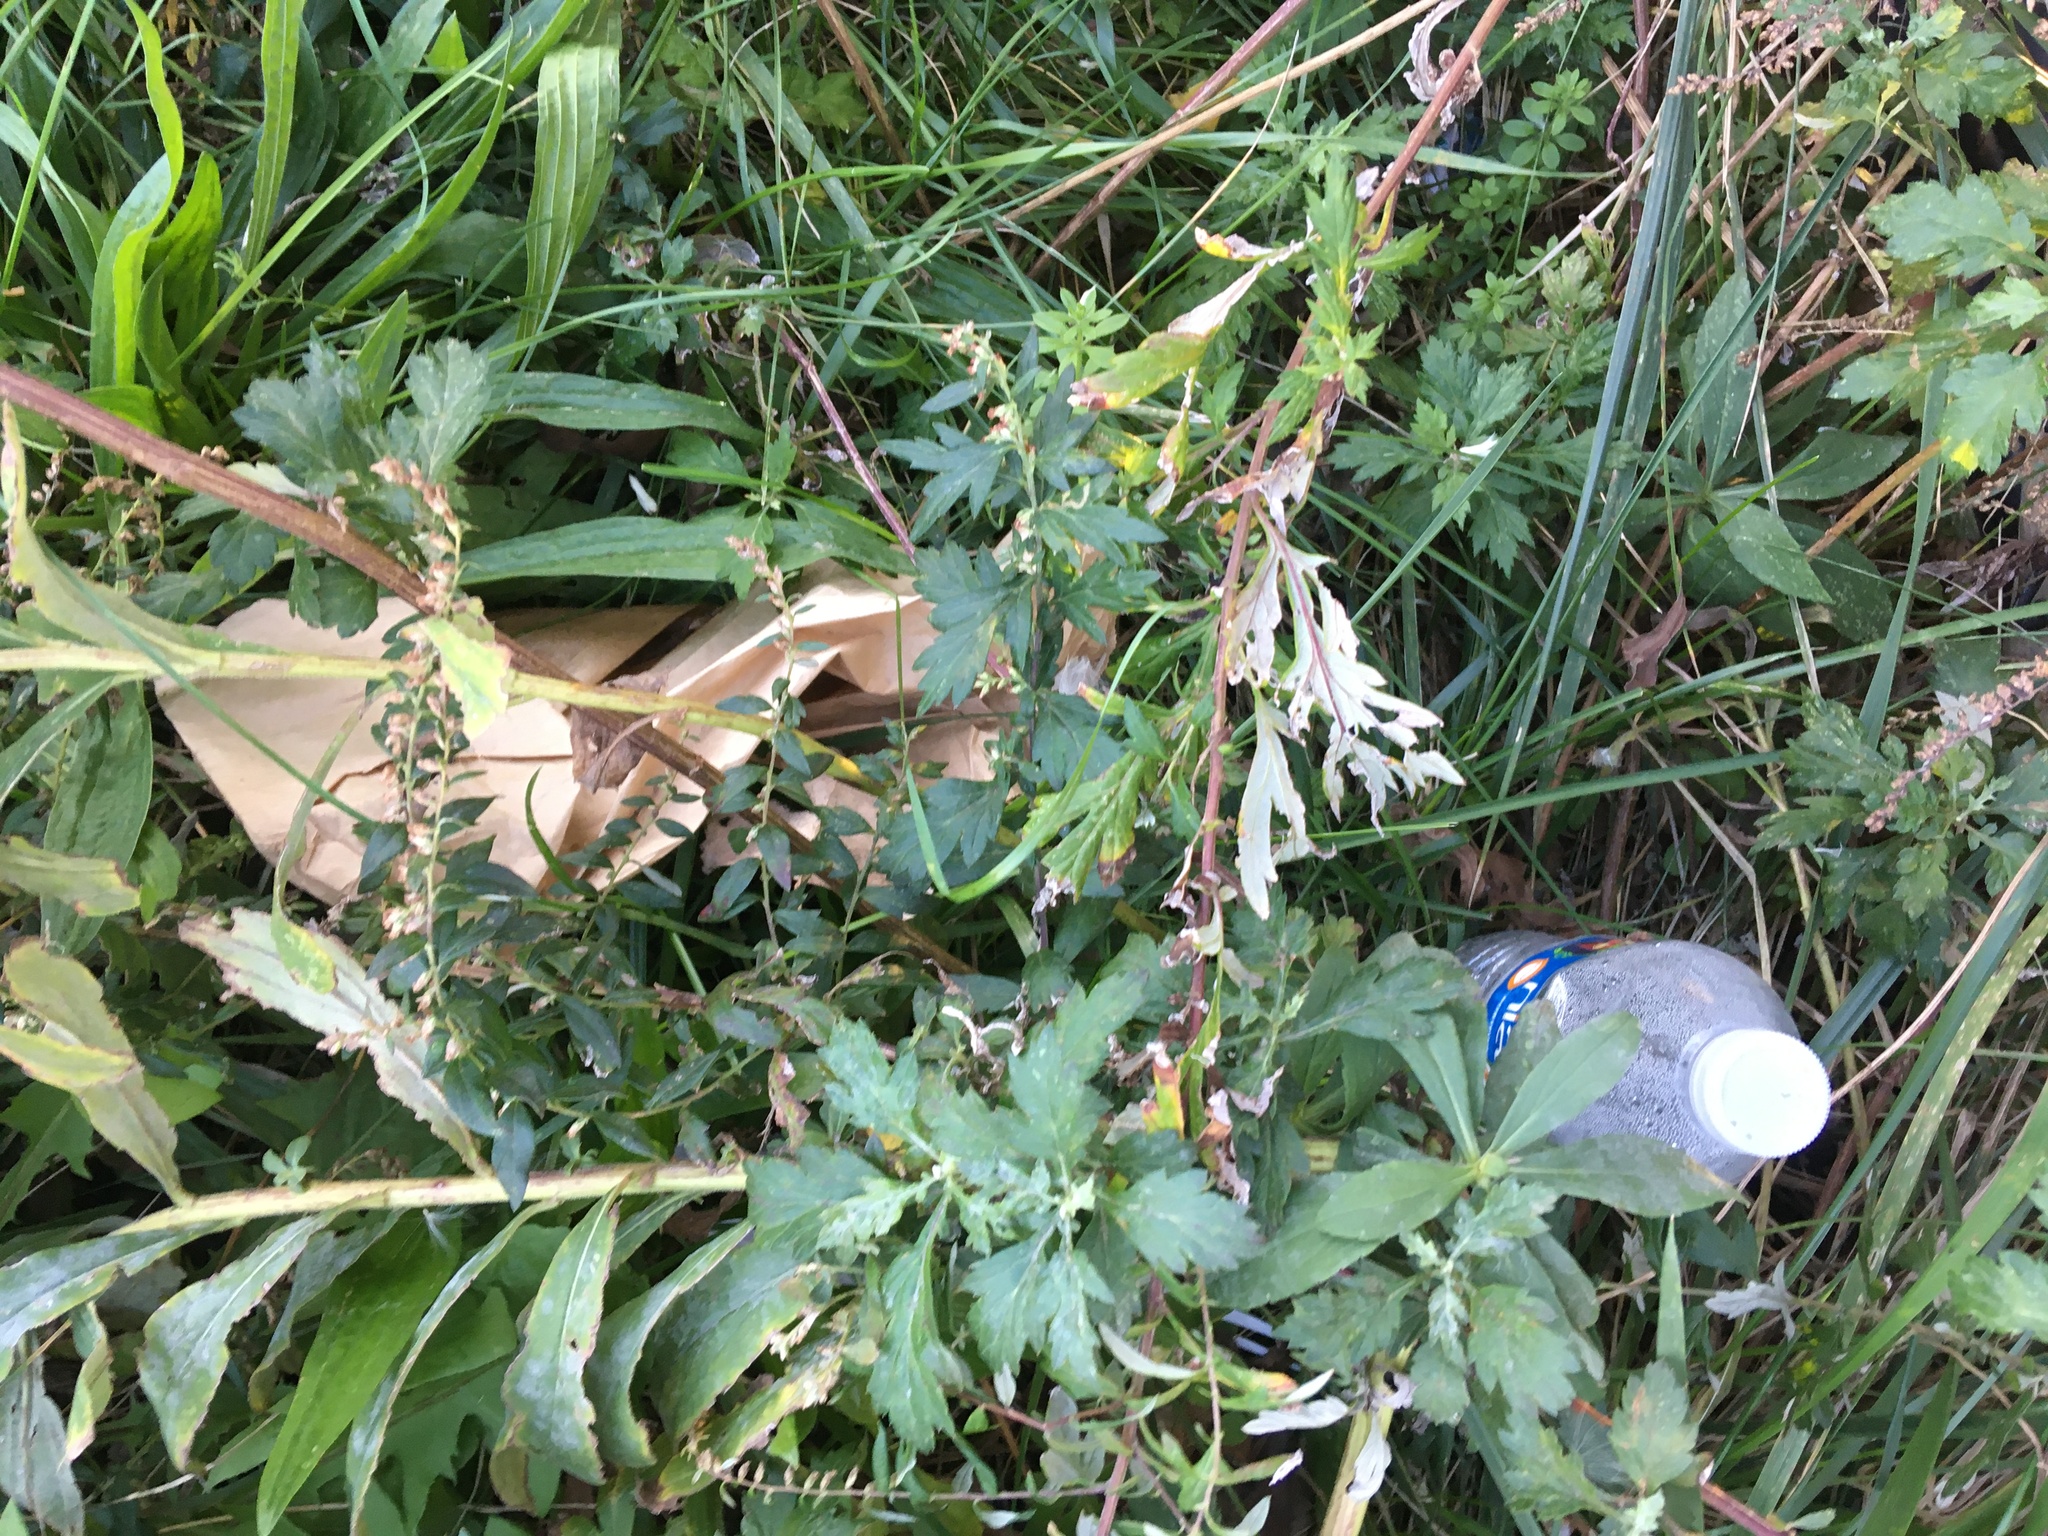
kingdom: Plantae
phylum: Tracheophyta
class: Magnoliopsida
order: Asterales
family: Asteraceae
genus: Artemisia
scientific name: Artemisia vulgaris
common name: Mugwort
